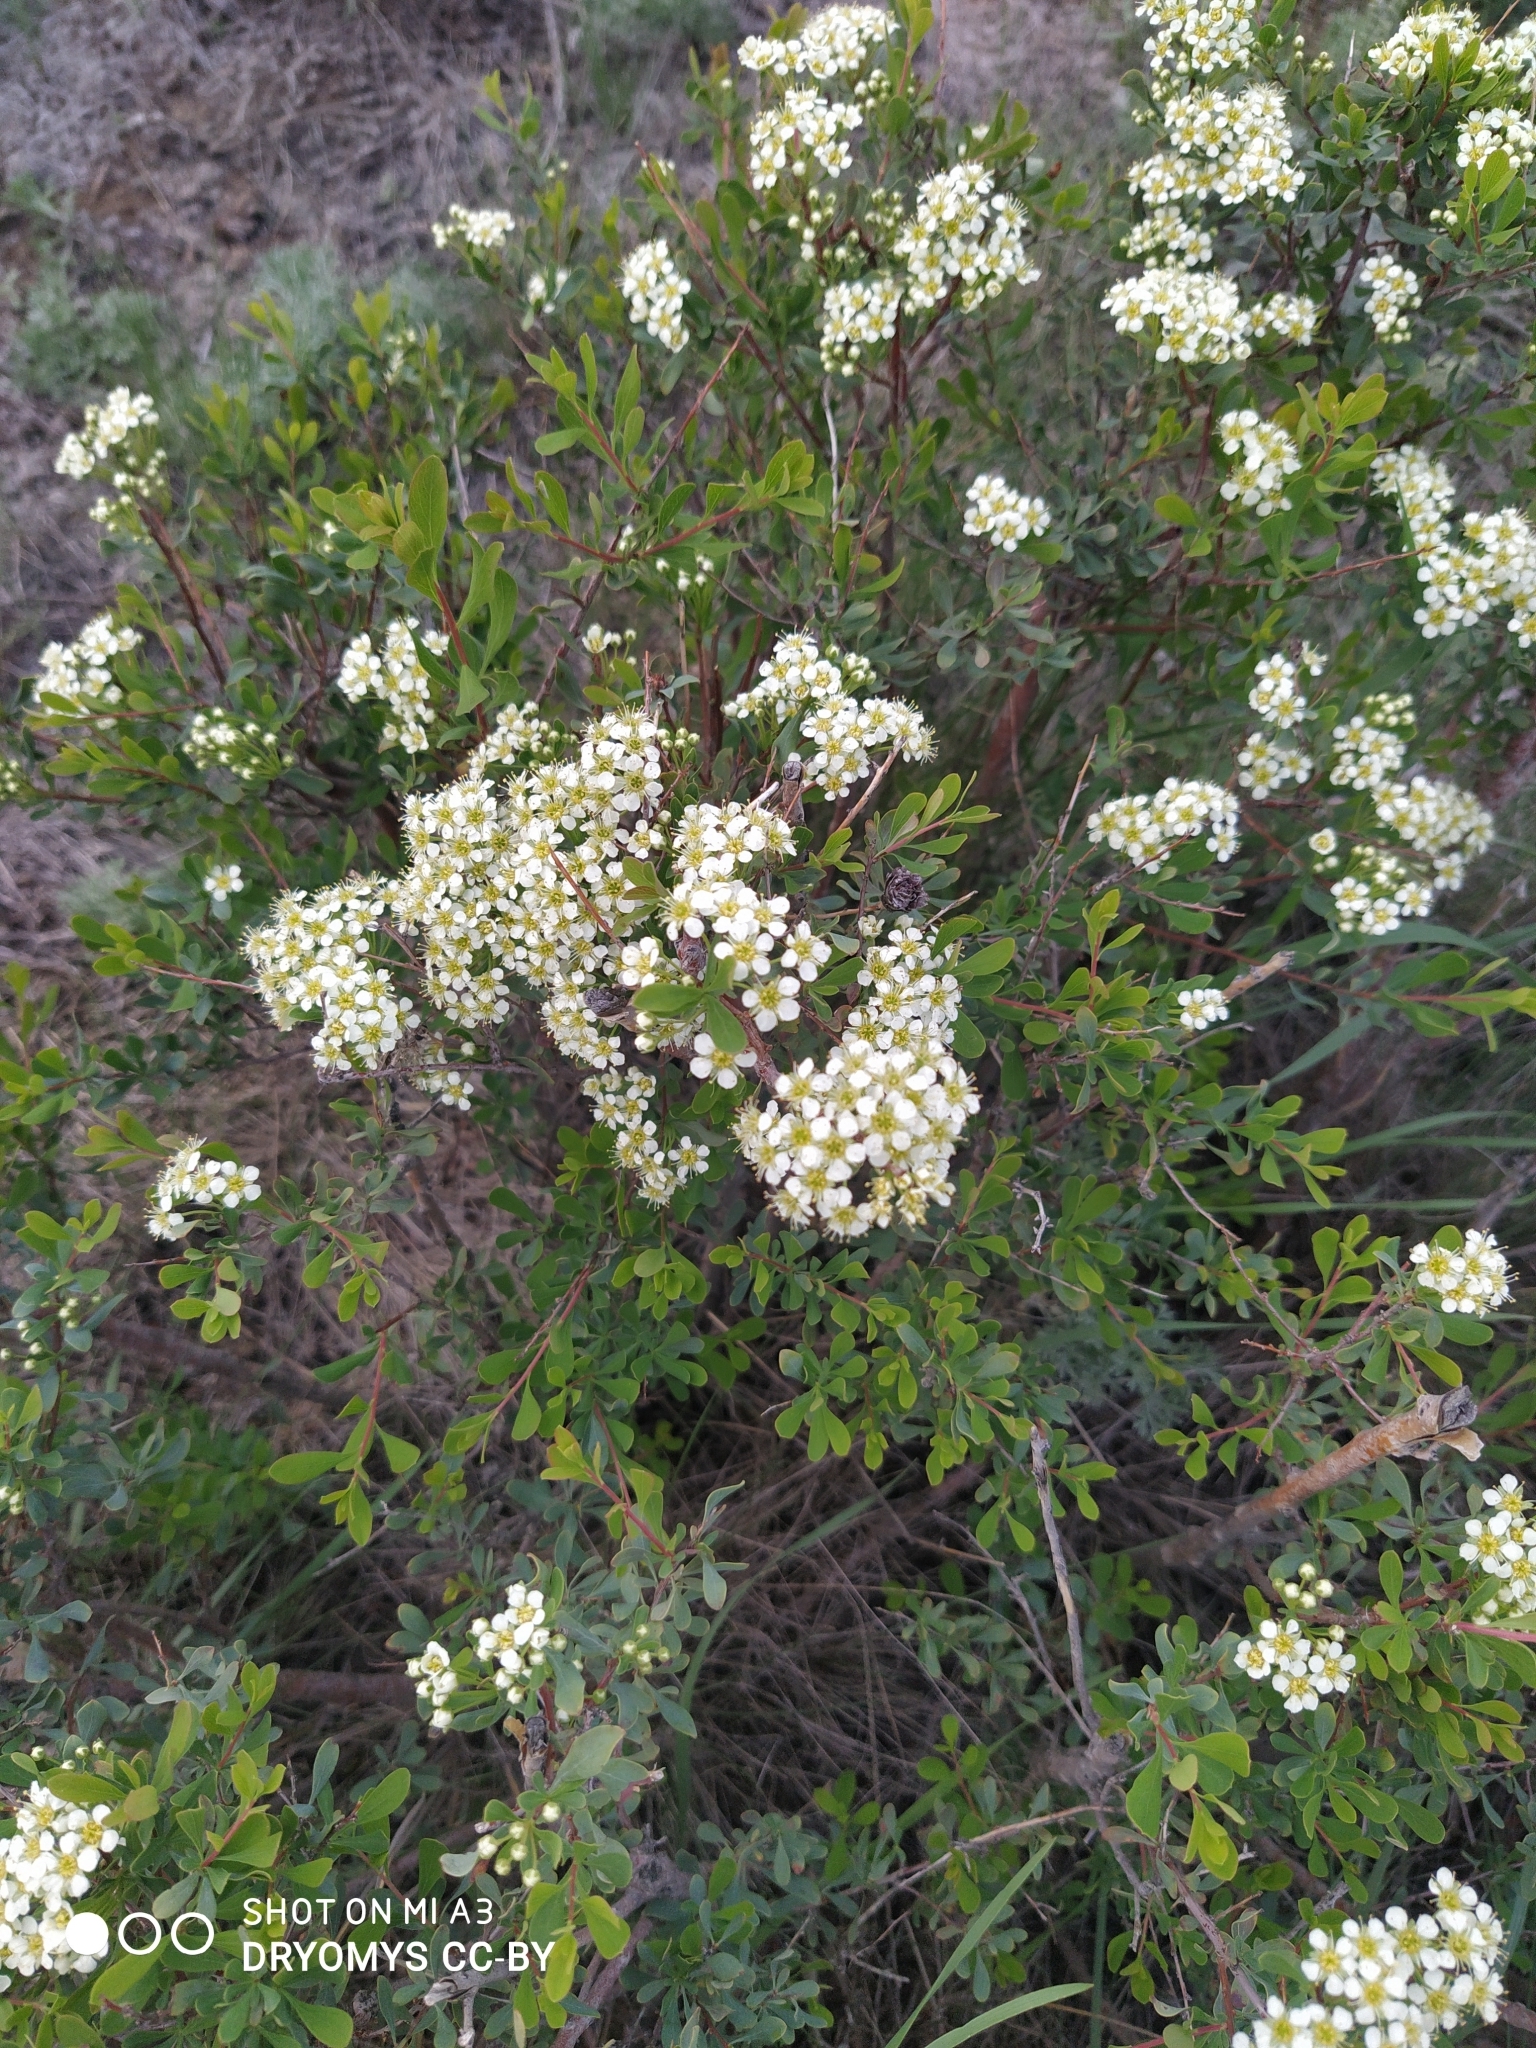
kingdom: Plantae
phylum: Tracheophyta
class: Magnoliopsida
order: Rosales
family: Rosaceae
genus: Spiraea
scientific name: Spiraea hypericifolia
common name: Iberian spirea
